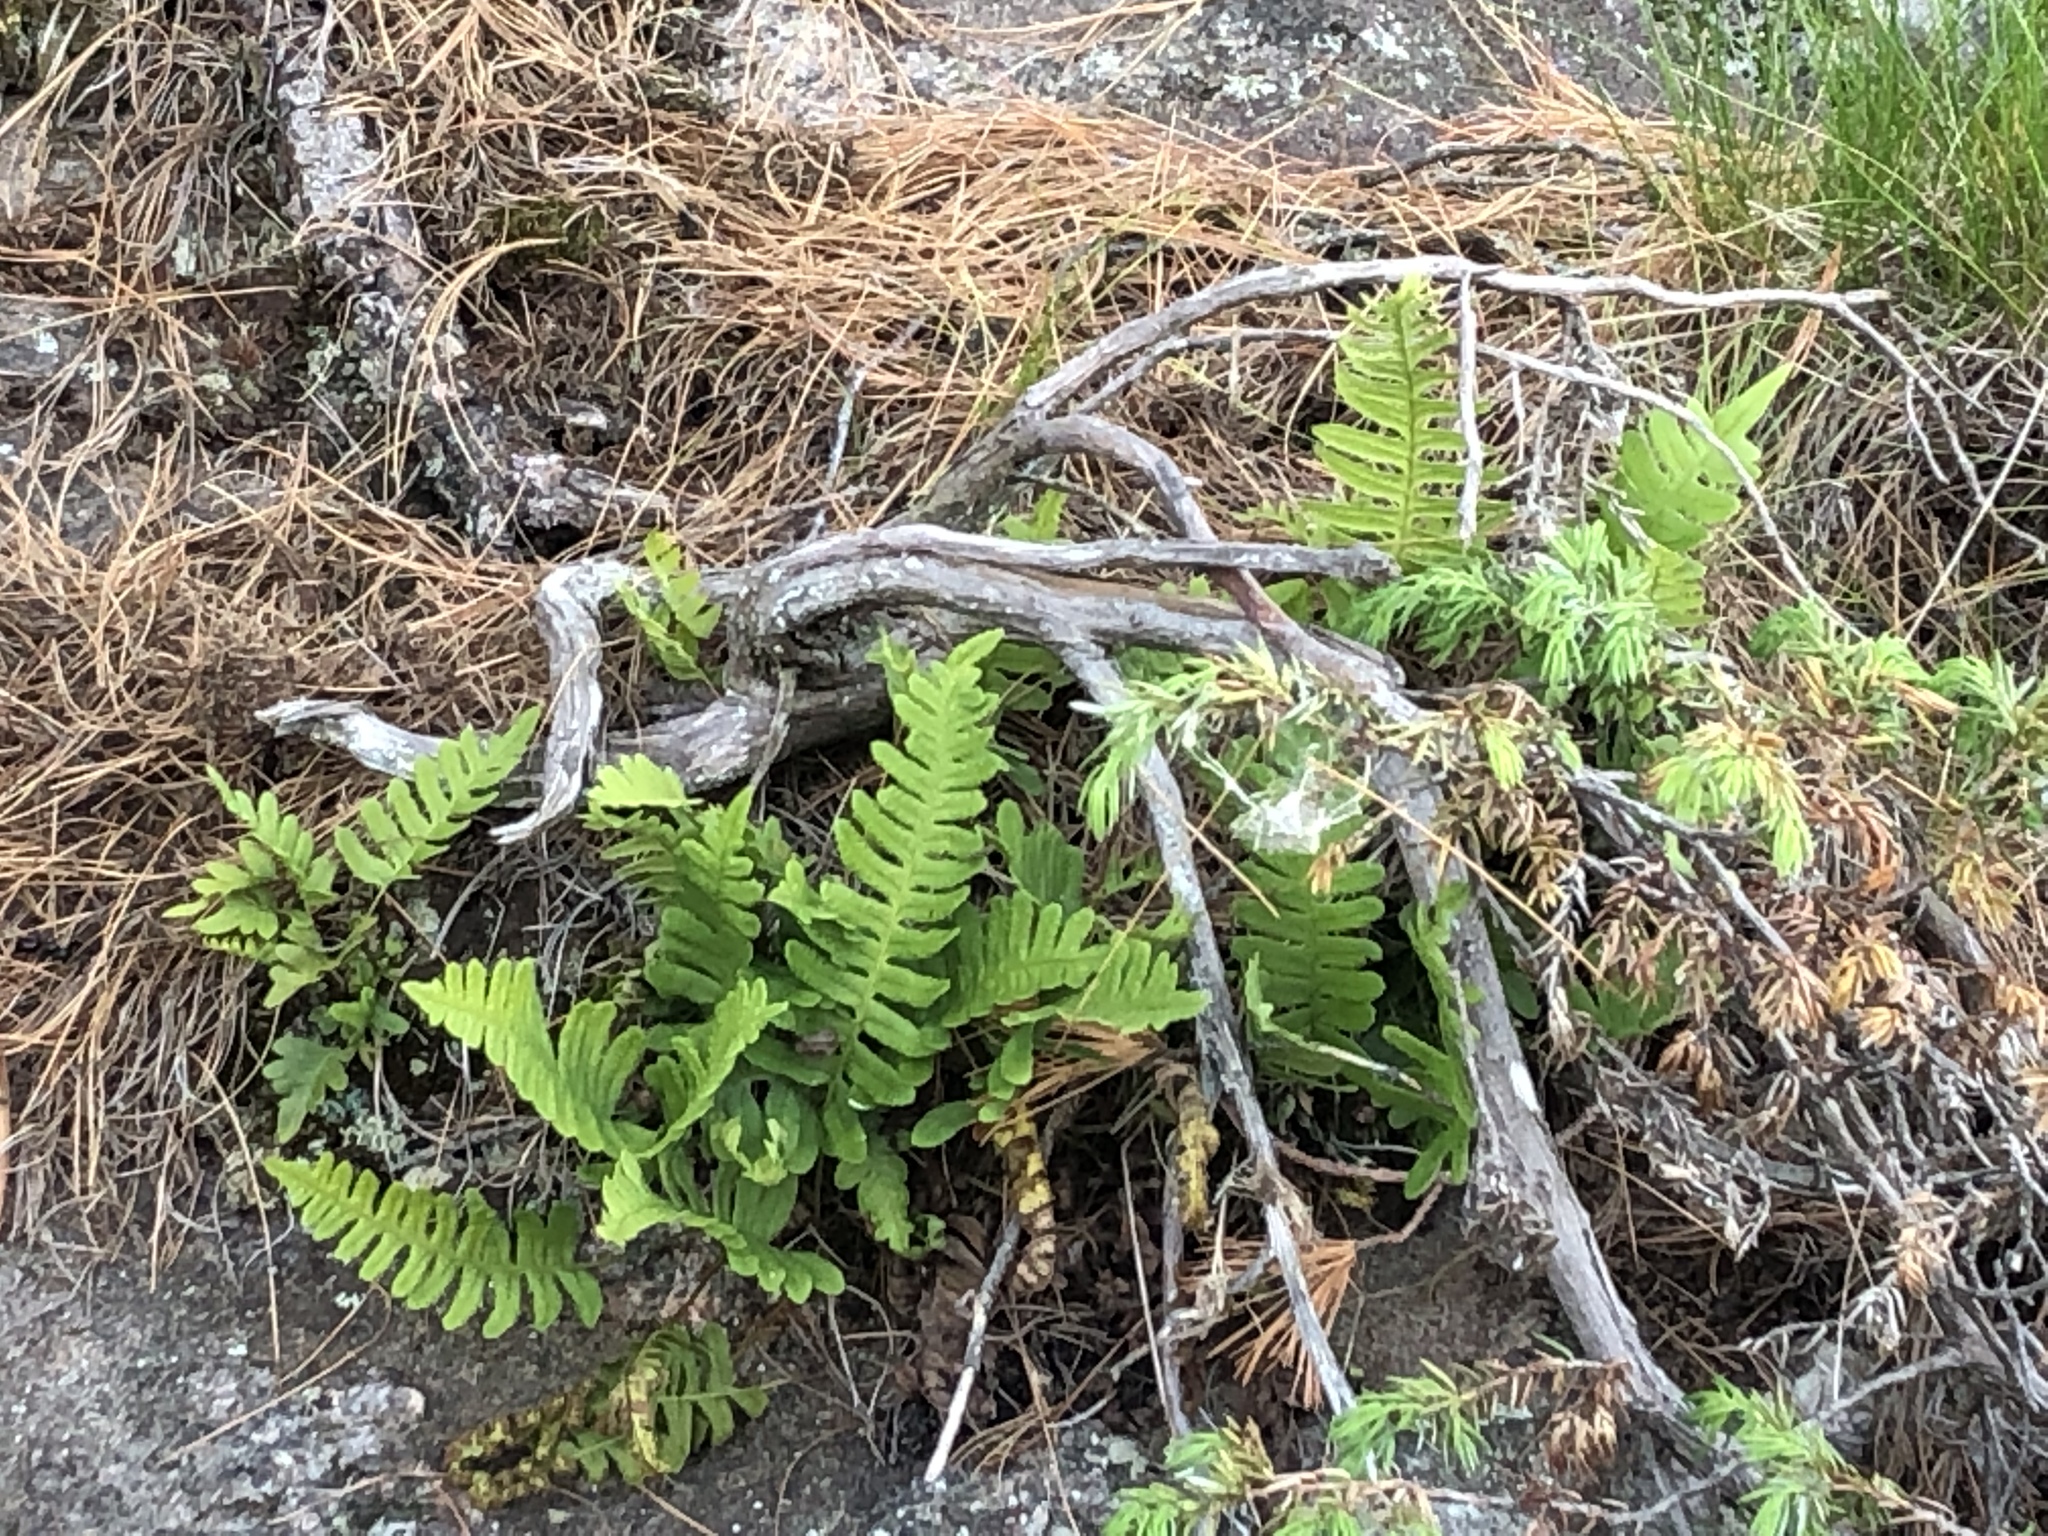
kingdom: Plantae
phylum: Tracheophyta
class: Polypodiopsida
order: Polypodiales
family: Polypodiaceae
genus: Polypodium
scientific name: Polypodium virginianum
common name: American wall fern
